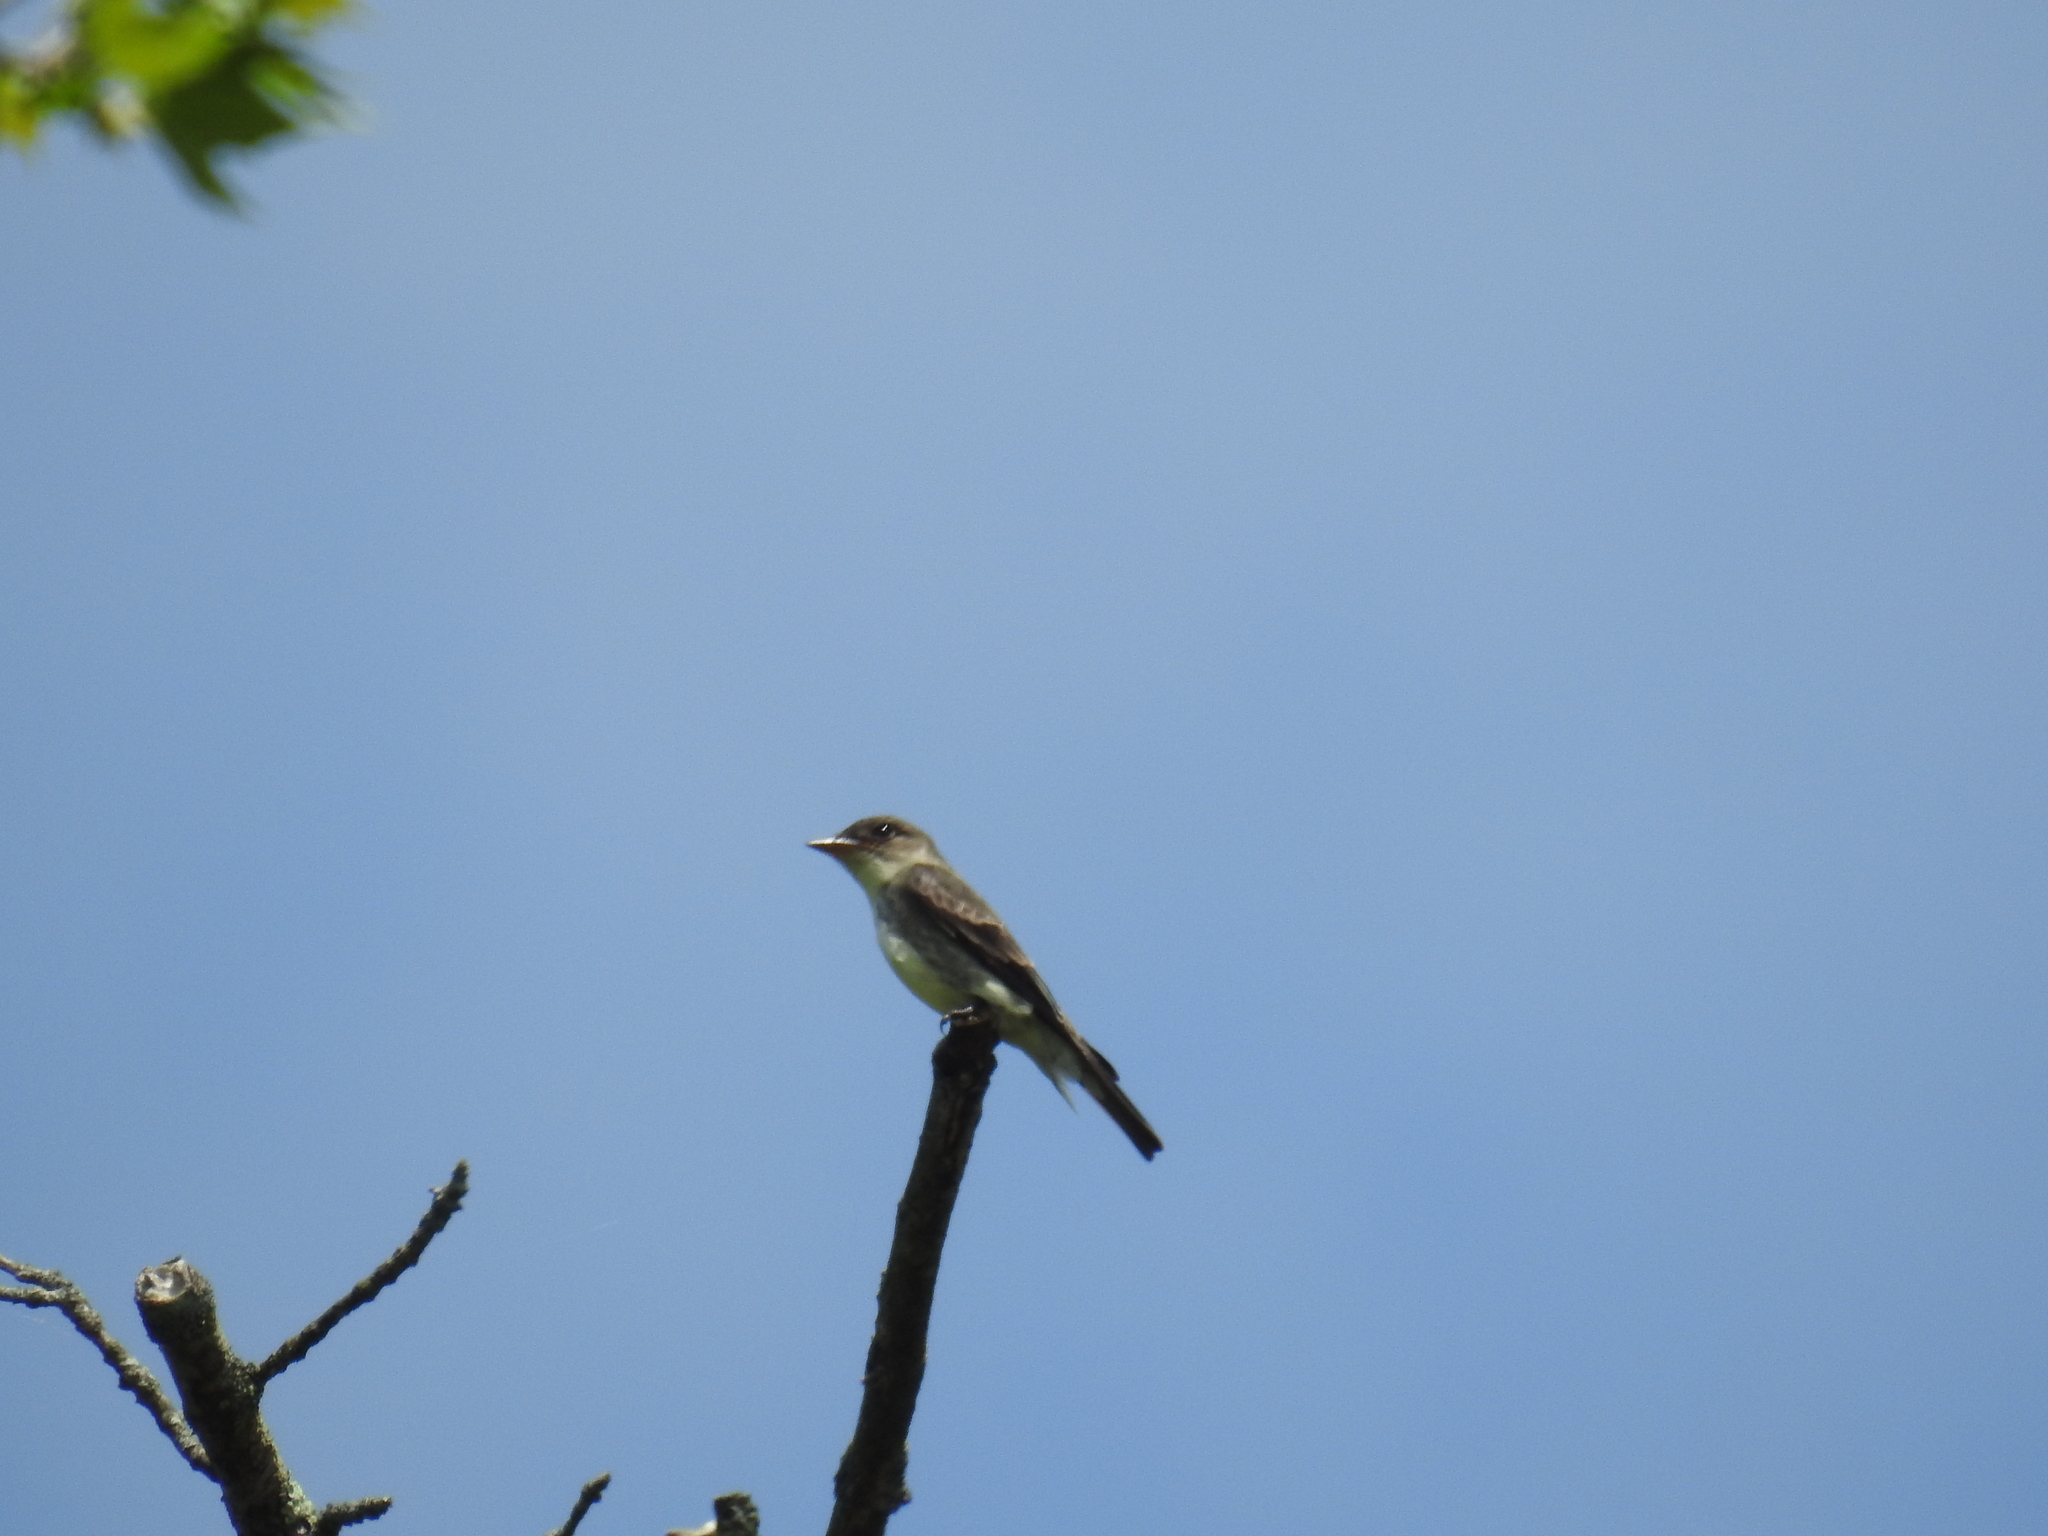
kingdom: Animalia
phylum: Chordata
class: Aves
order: Passeriformes
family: Tyrannidae
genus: Contopus
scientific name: Contopus virens
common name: Eastern wood-pewee
